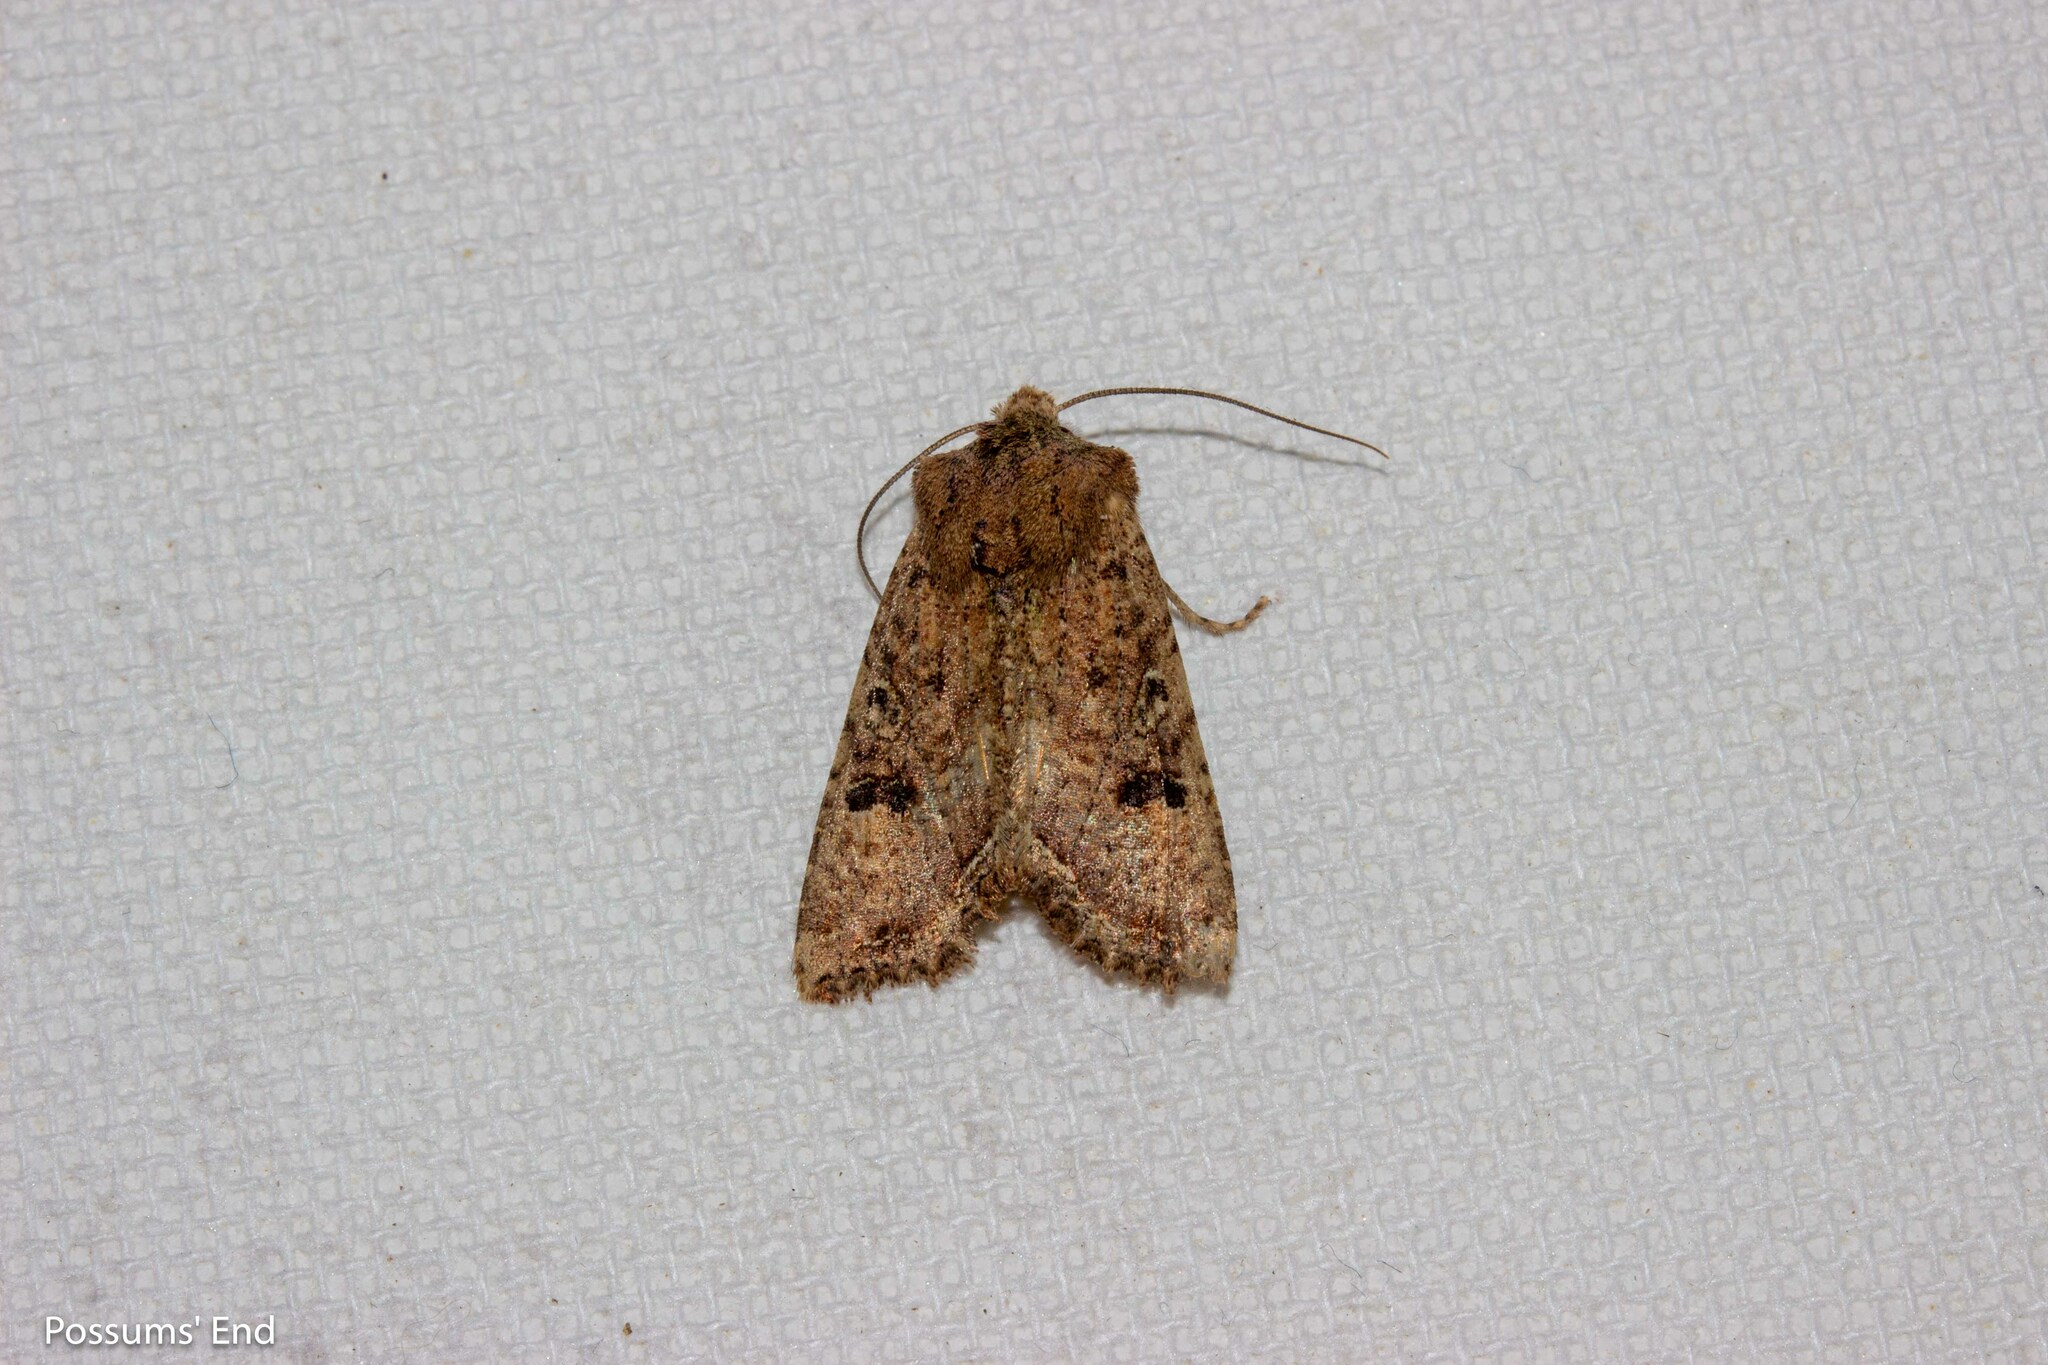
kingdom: Animalia
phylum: Arthropoda
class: Insecta
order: Lepidoptera
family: Noctuidae
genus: Meterana
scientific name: Meterana inchoata
